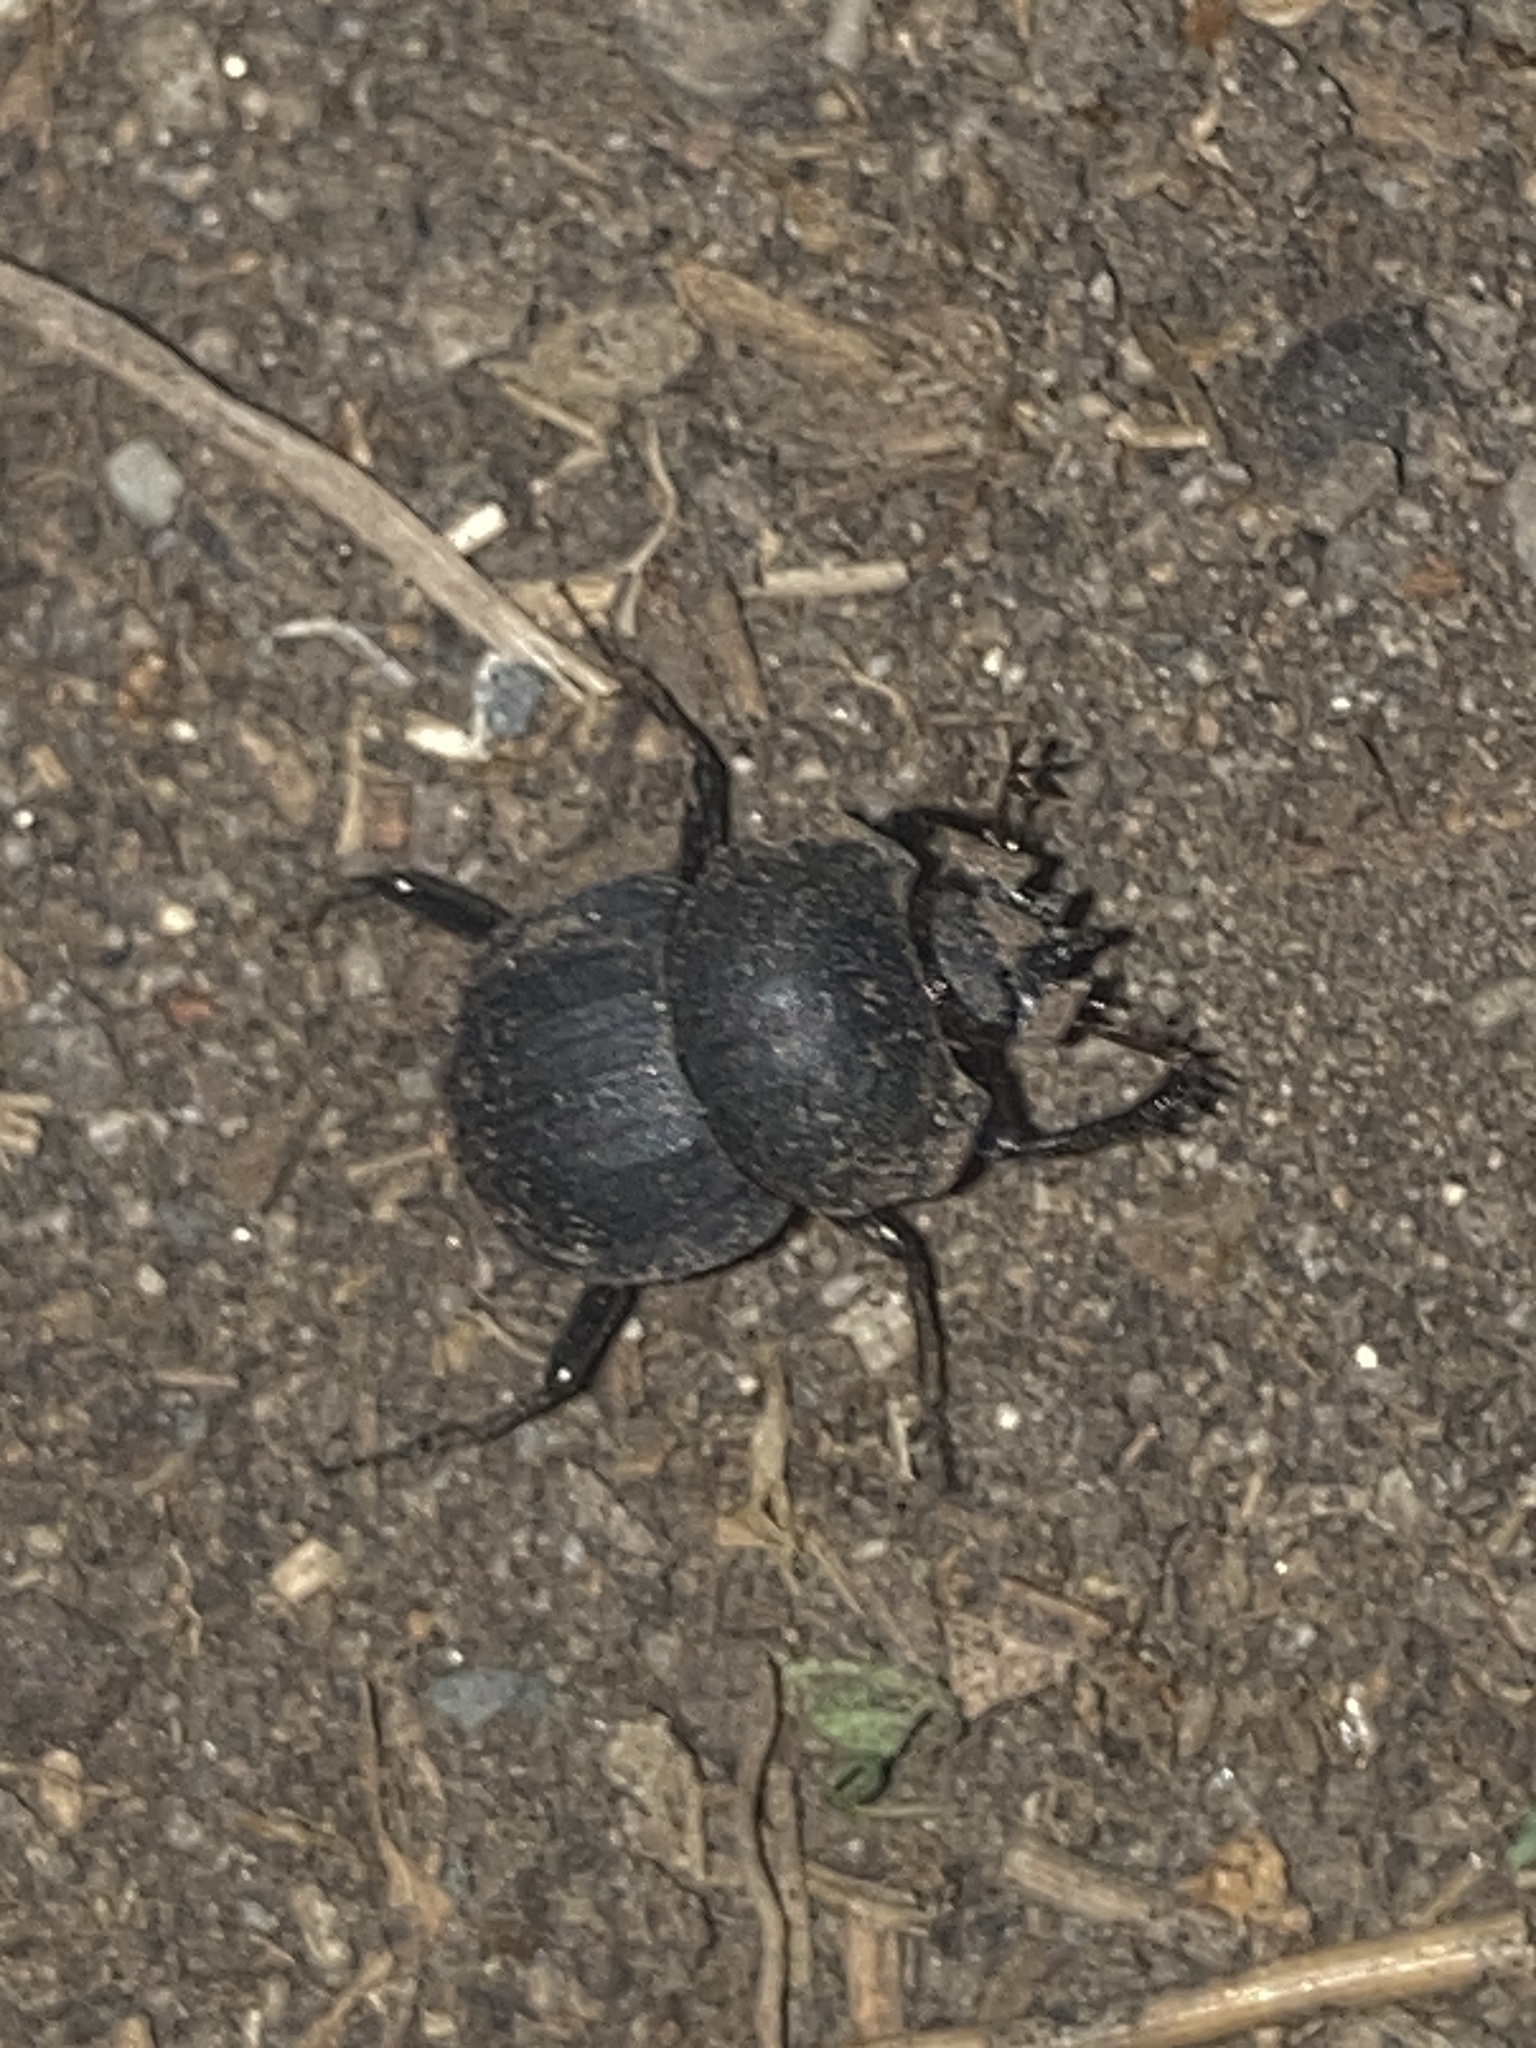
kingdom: Animalia
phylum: Arthropoda
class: Insecta
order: Coleoptera
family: Scarabaeidae
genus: Cephalodesmius
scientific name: Cephalodesmius armiger
